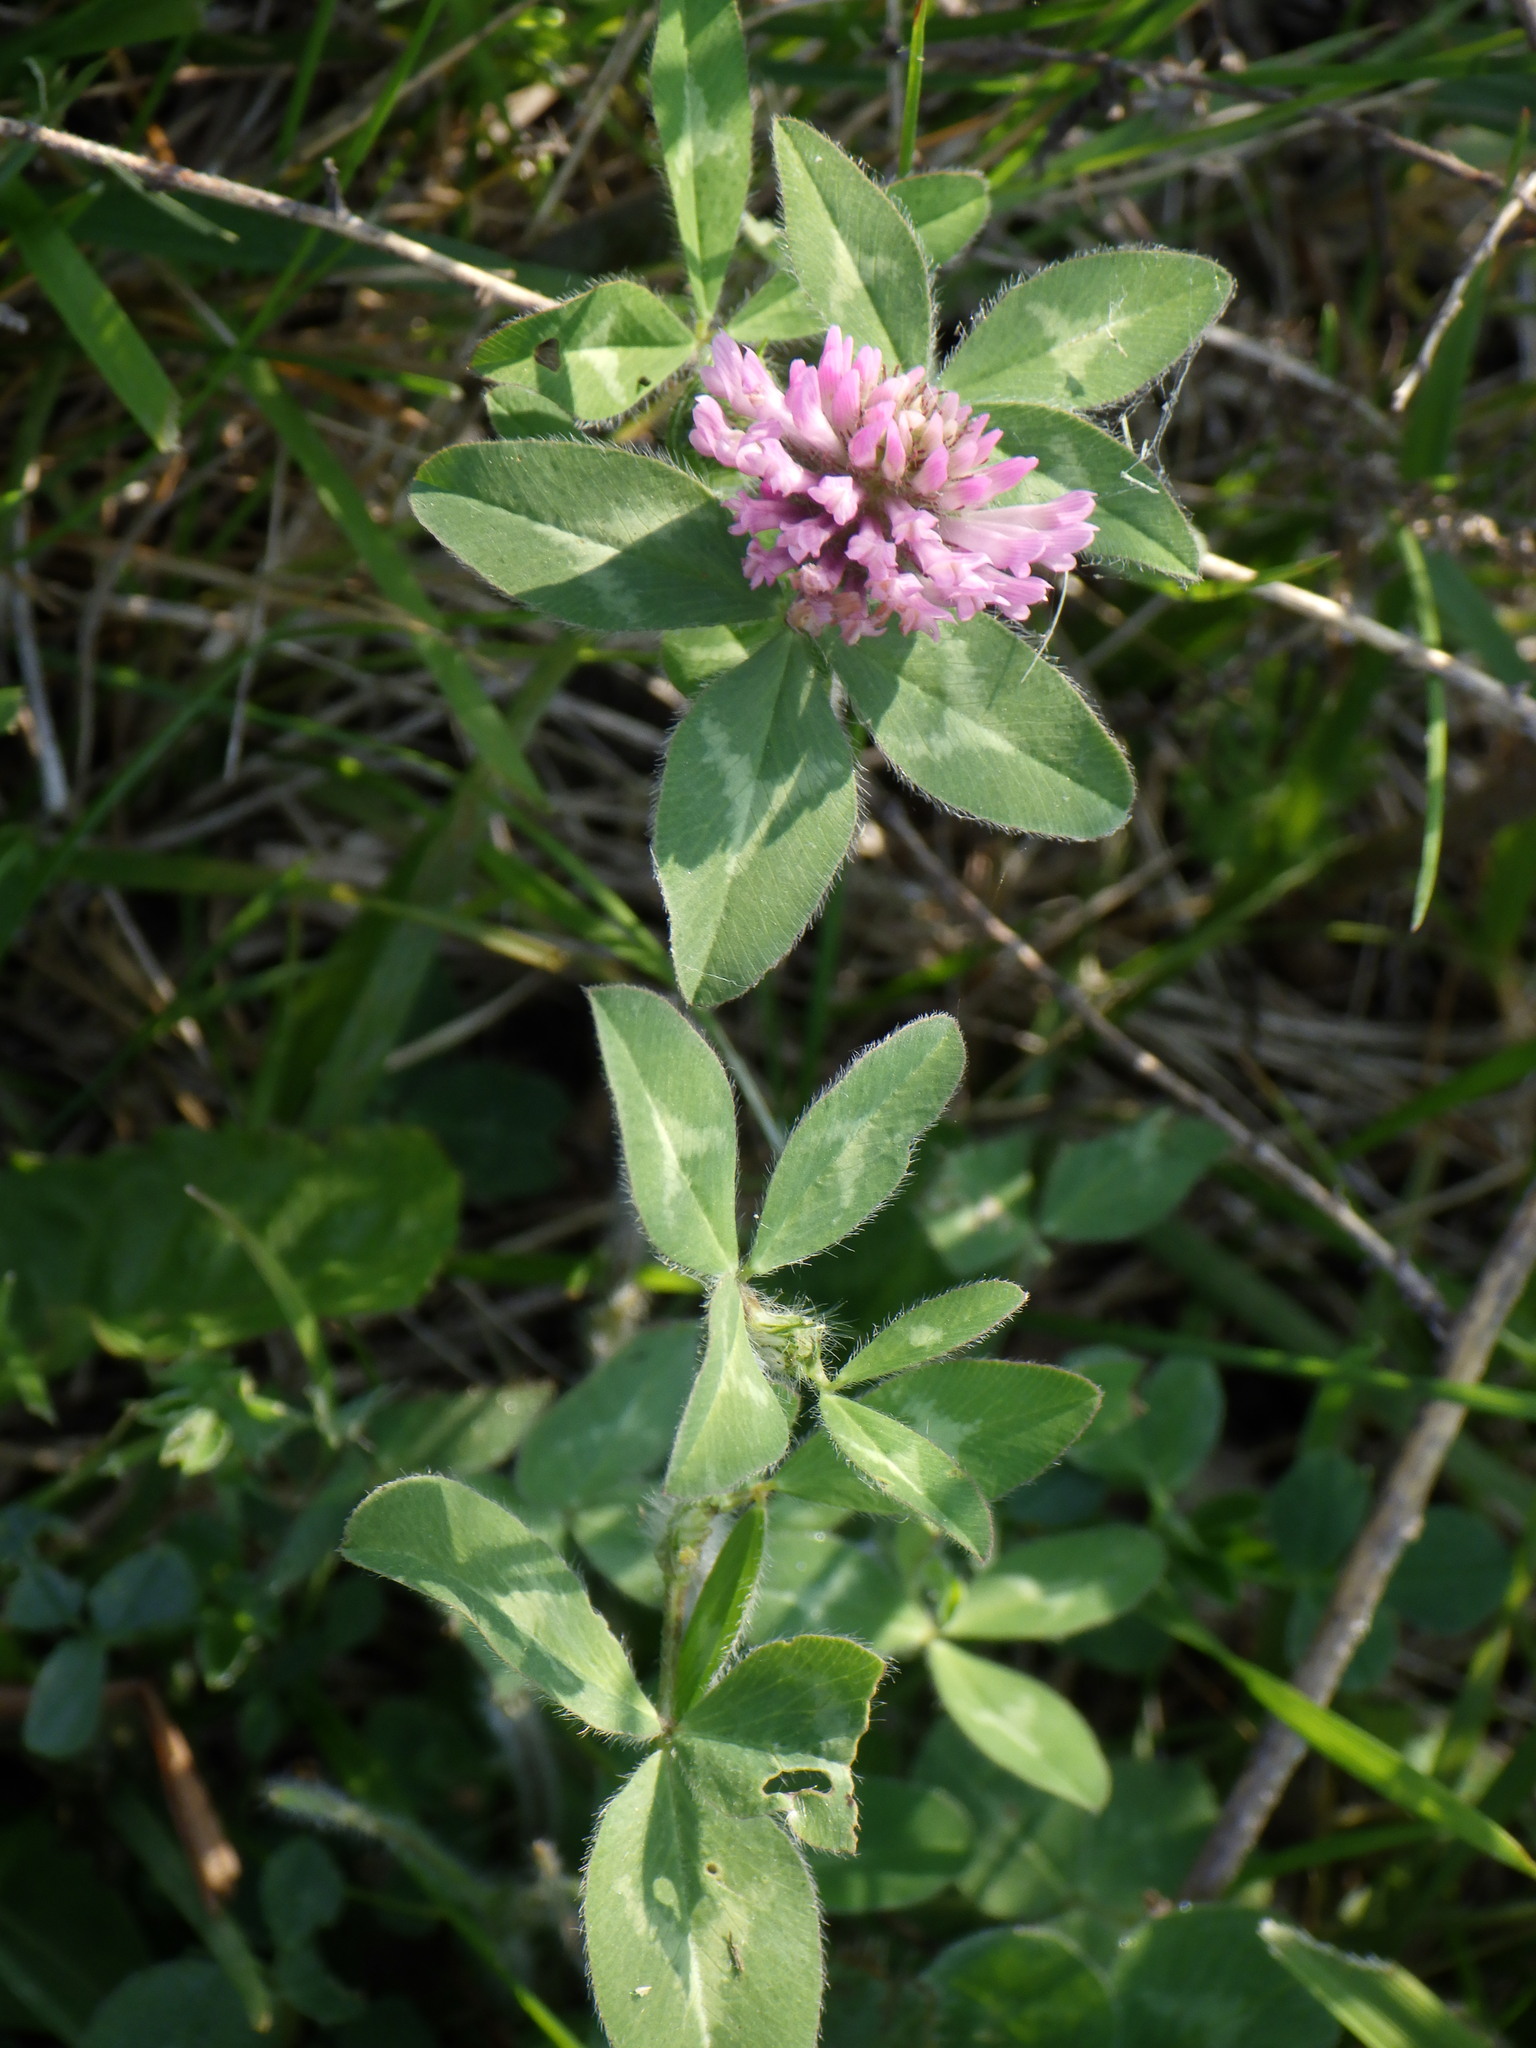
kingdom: Plantae
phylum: Tracheophyta
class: Magnoliopsida
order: Fabales
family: Fabaceae
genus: Trifolium
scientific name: Trifolium pratense
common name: Red clover
